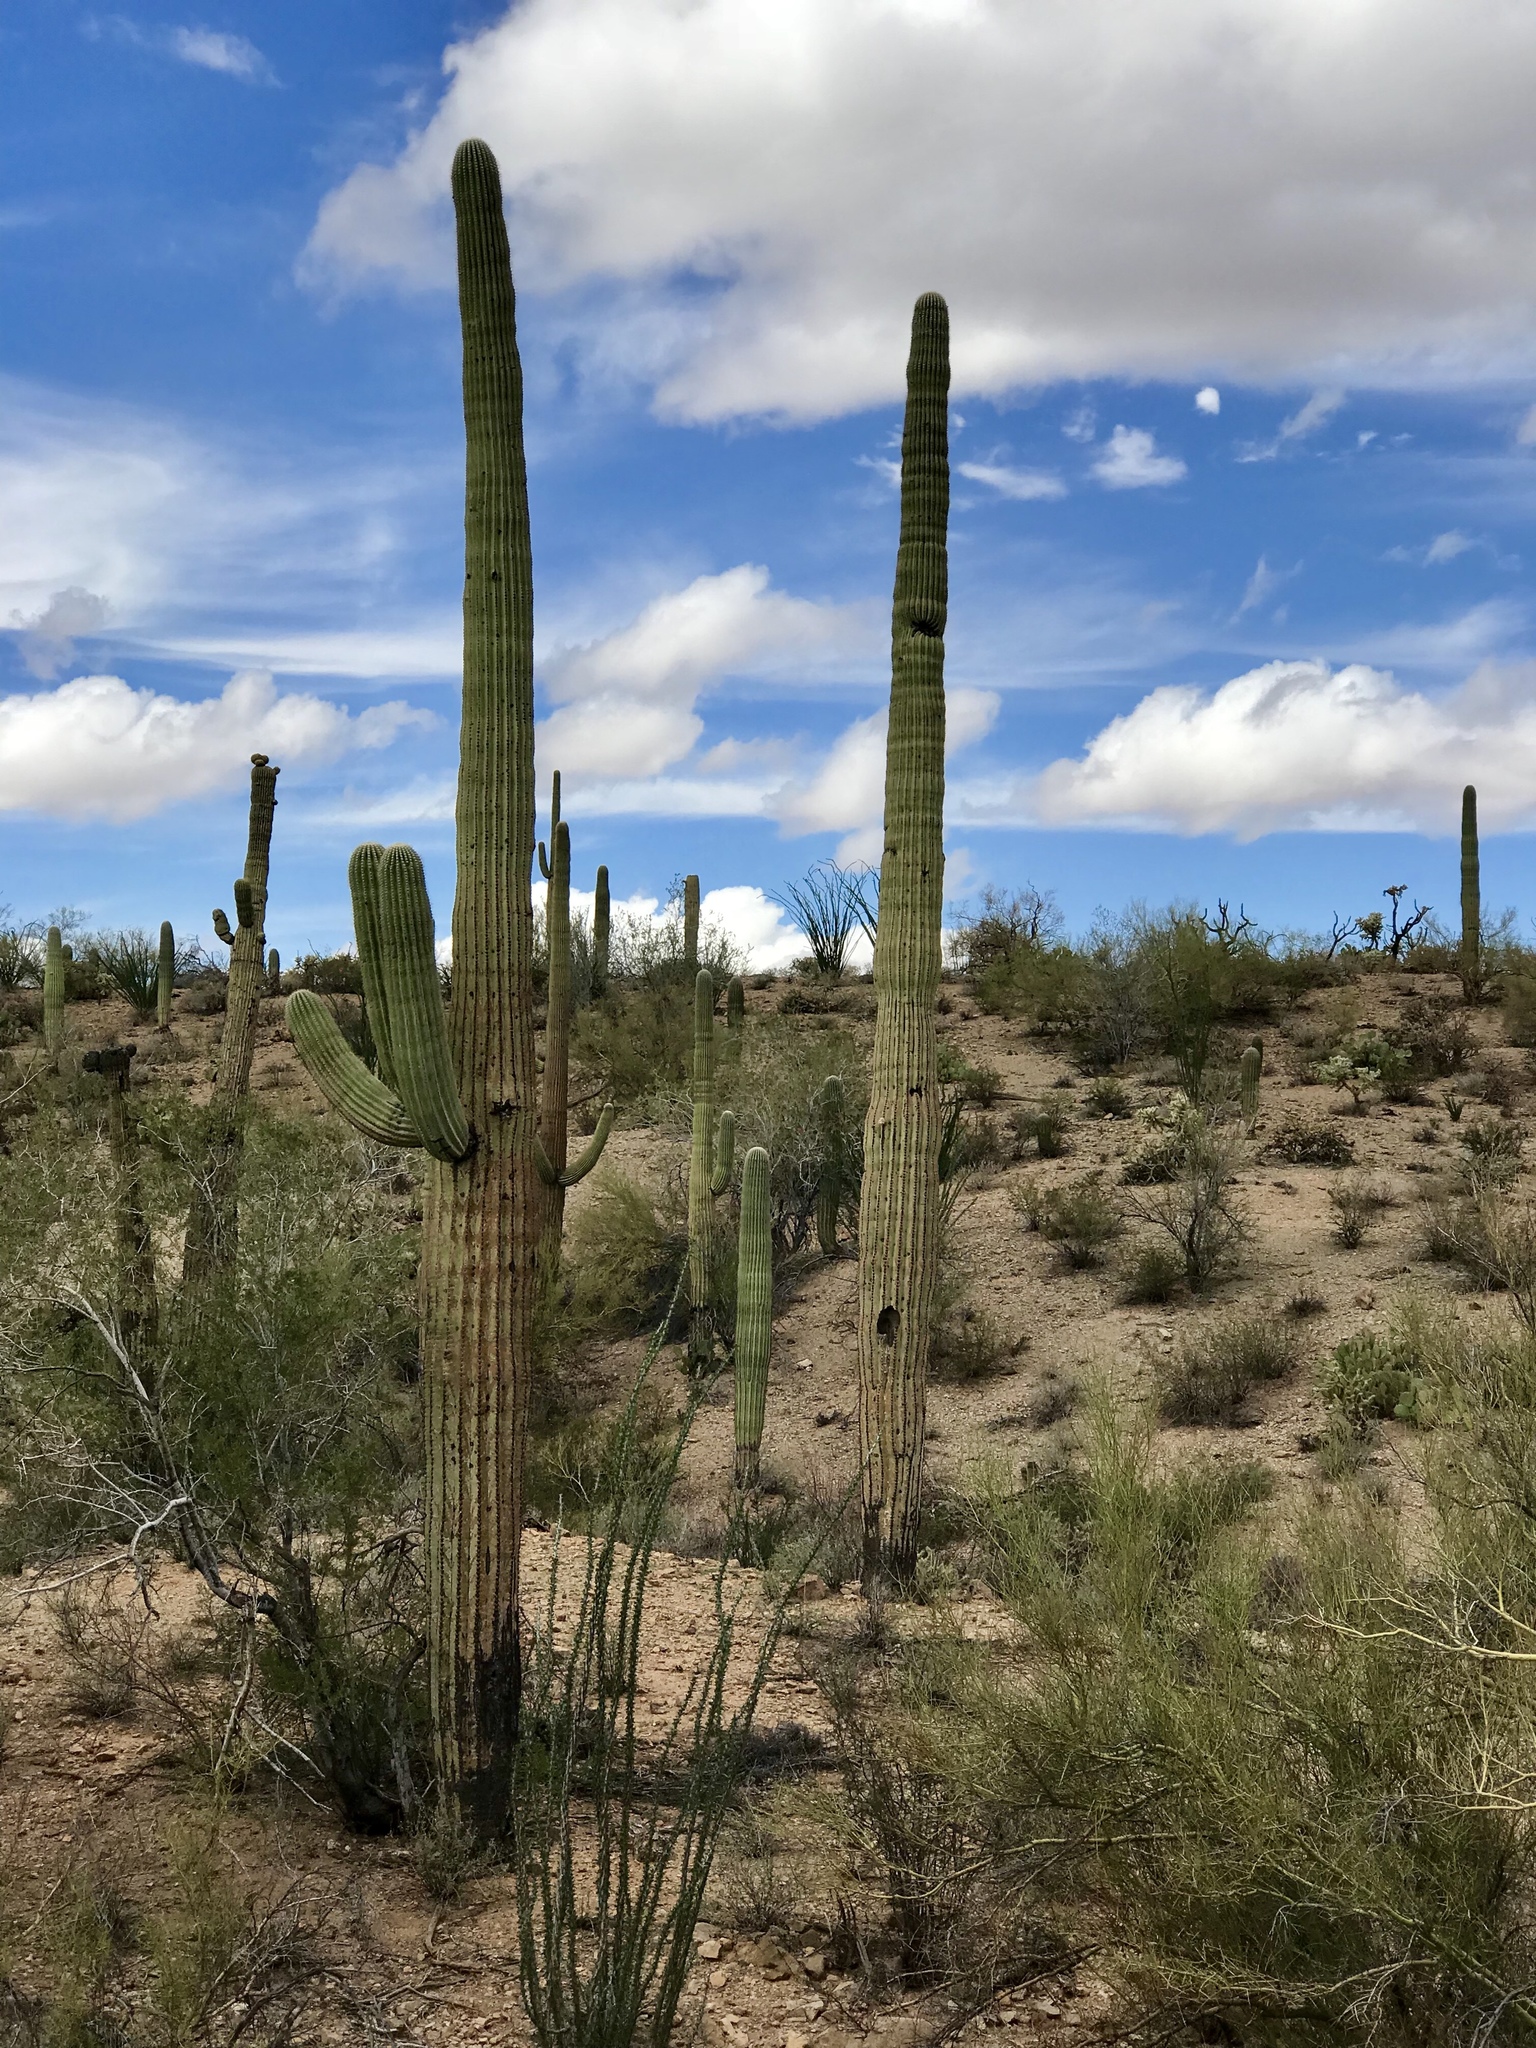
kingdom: Plantae
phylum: Tracheophyta
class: Magnoliopsida
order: Caryophyllales
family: Cactaceae
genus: Carnegiea
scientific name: Carnegiea gigantea
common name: Saguaro
